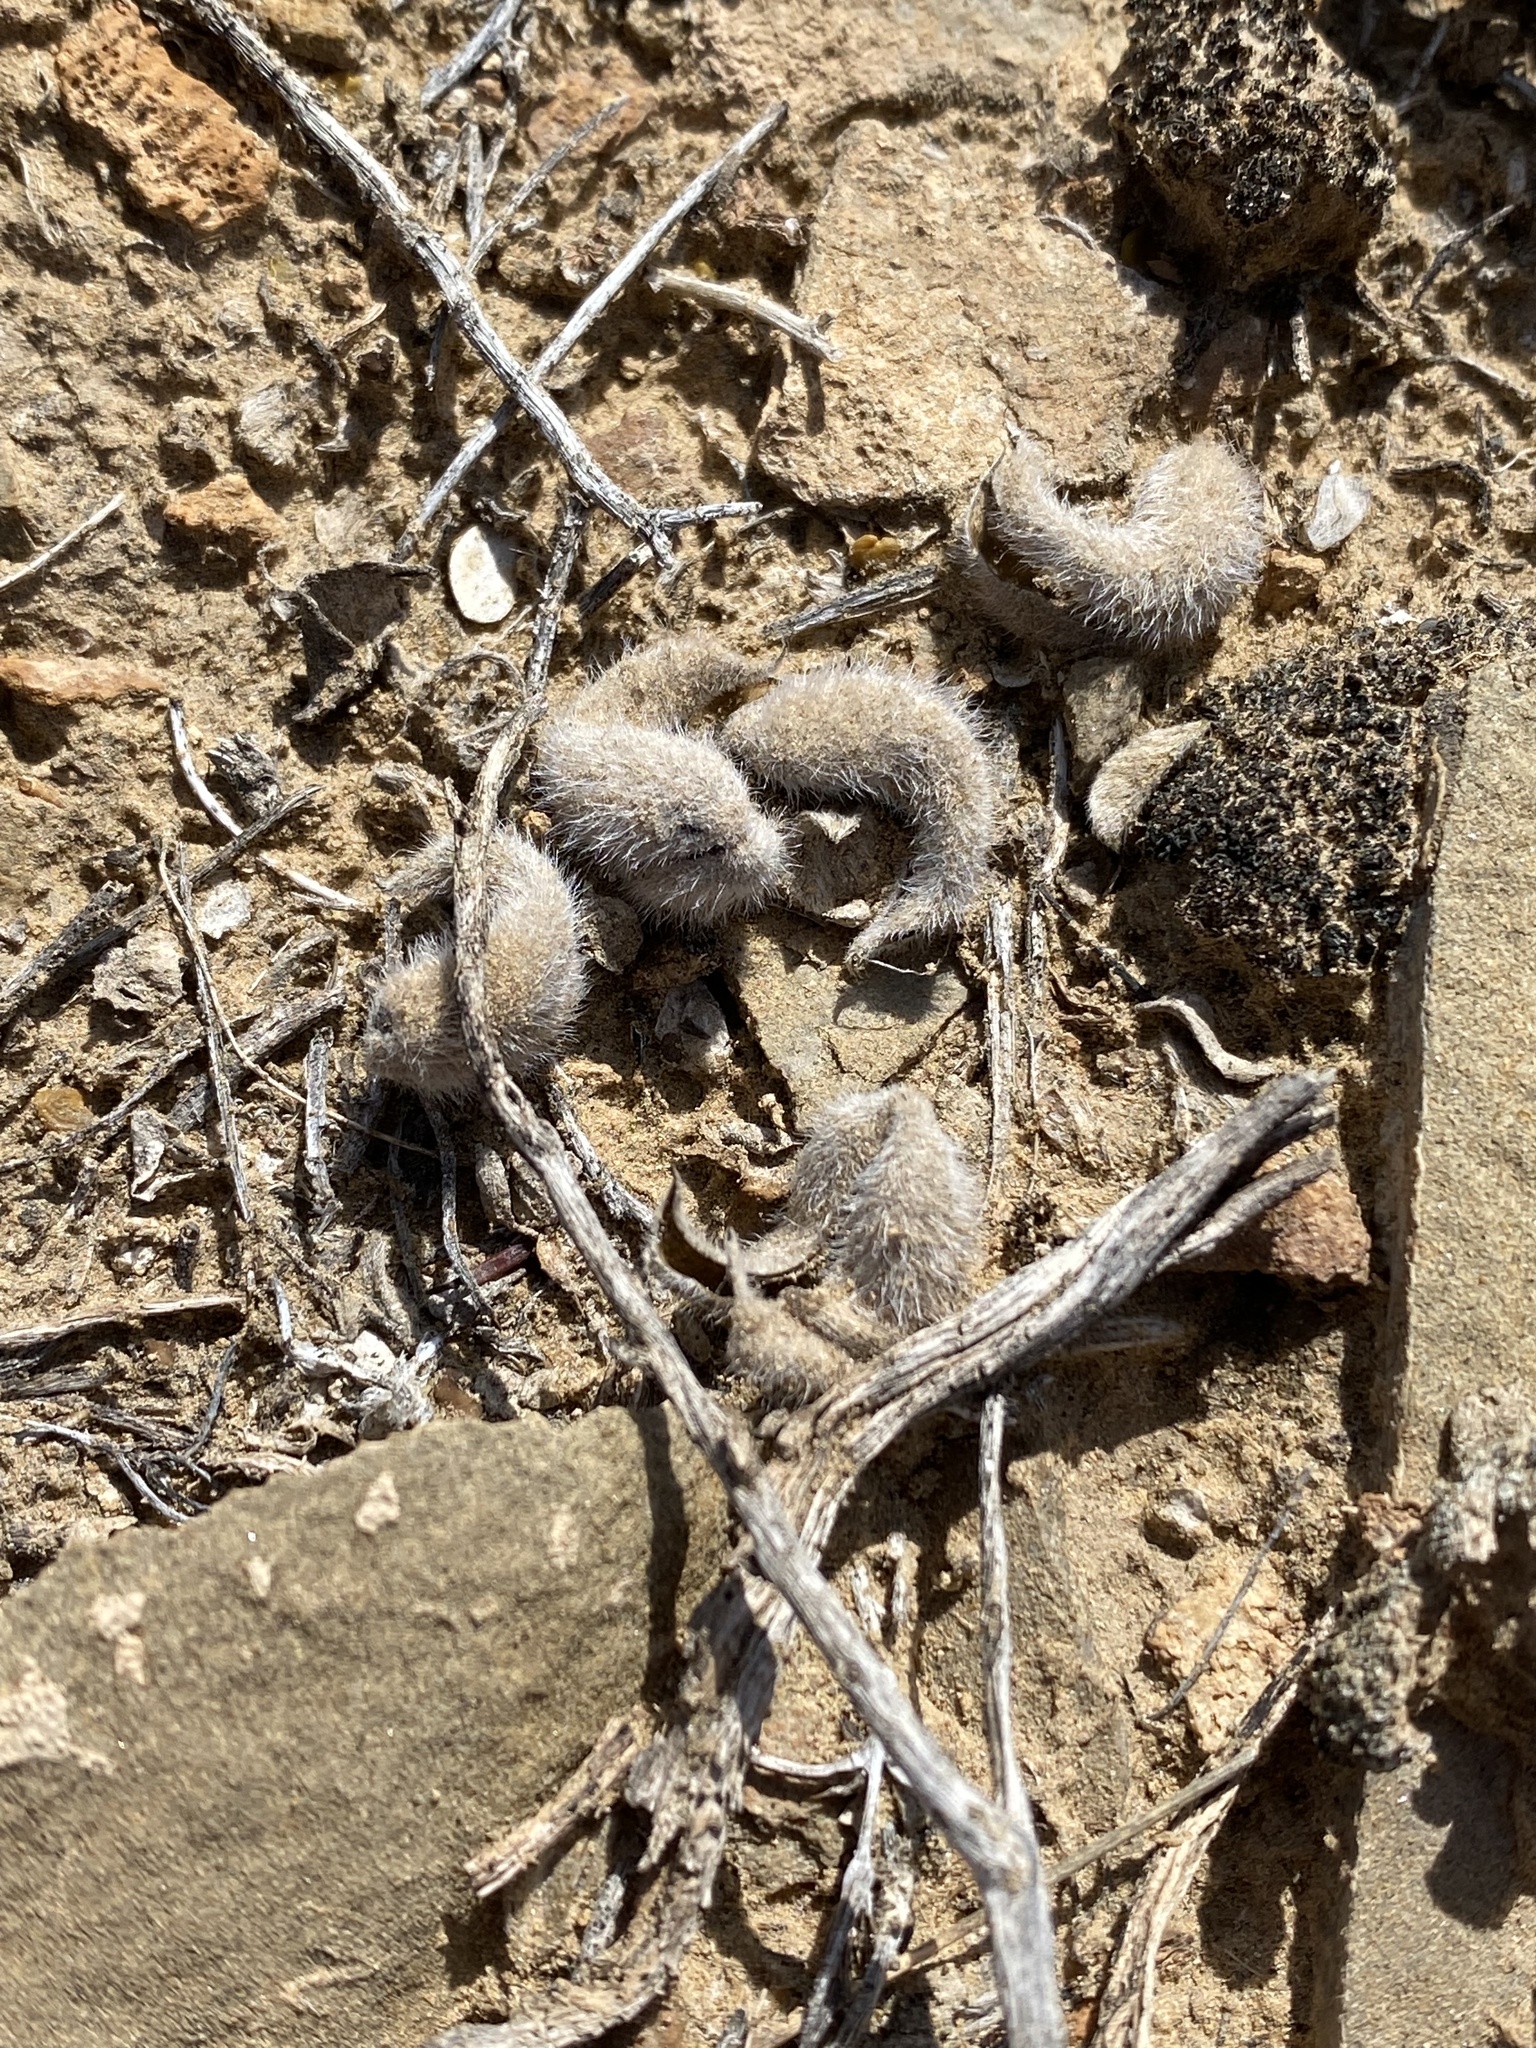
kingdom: Plantae
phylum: Tracheophyta
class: Magnoliopsida
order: Fabales
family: Fabaceae
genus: Astragalus
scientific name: Astragalus mollissimus
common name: Woolly locoweed
